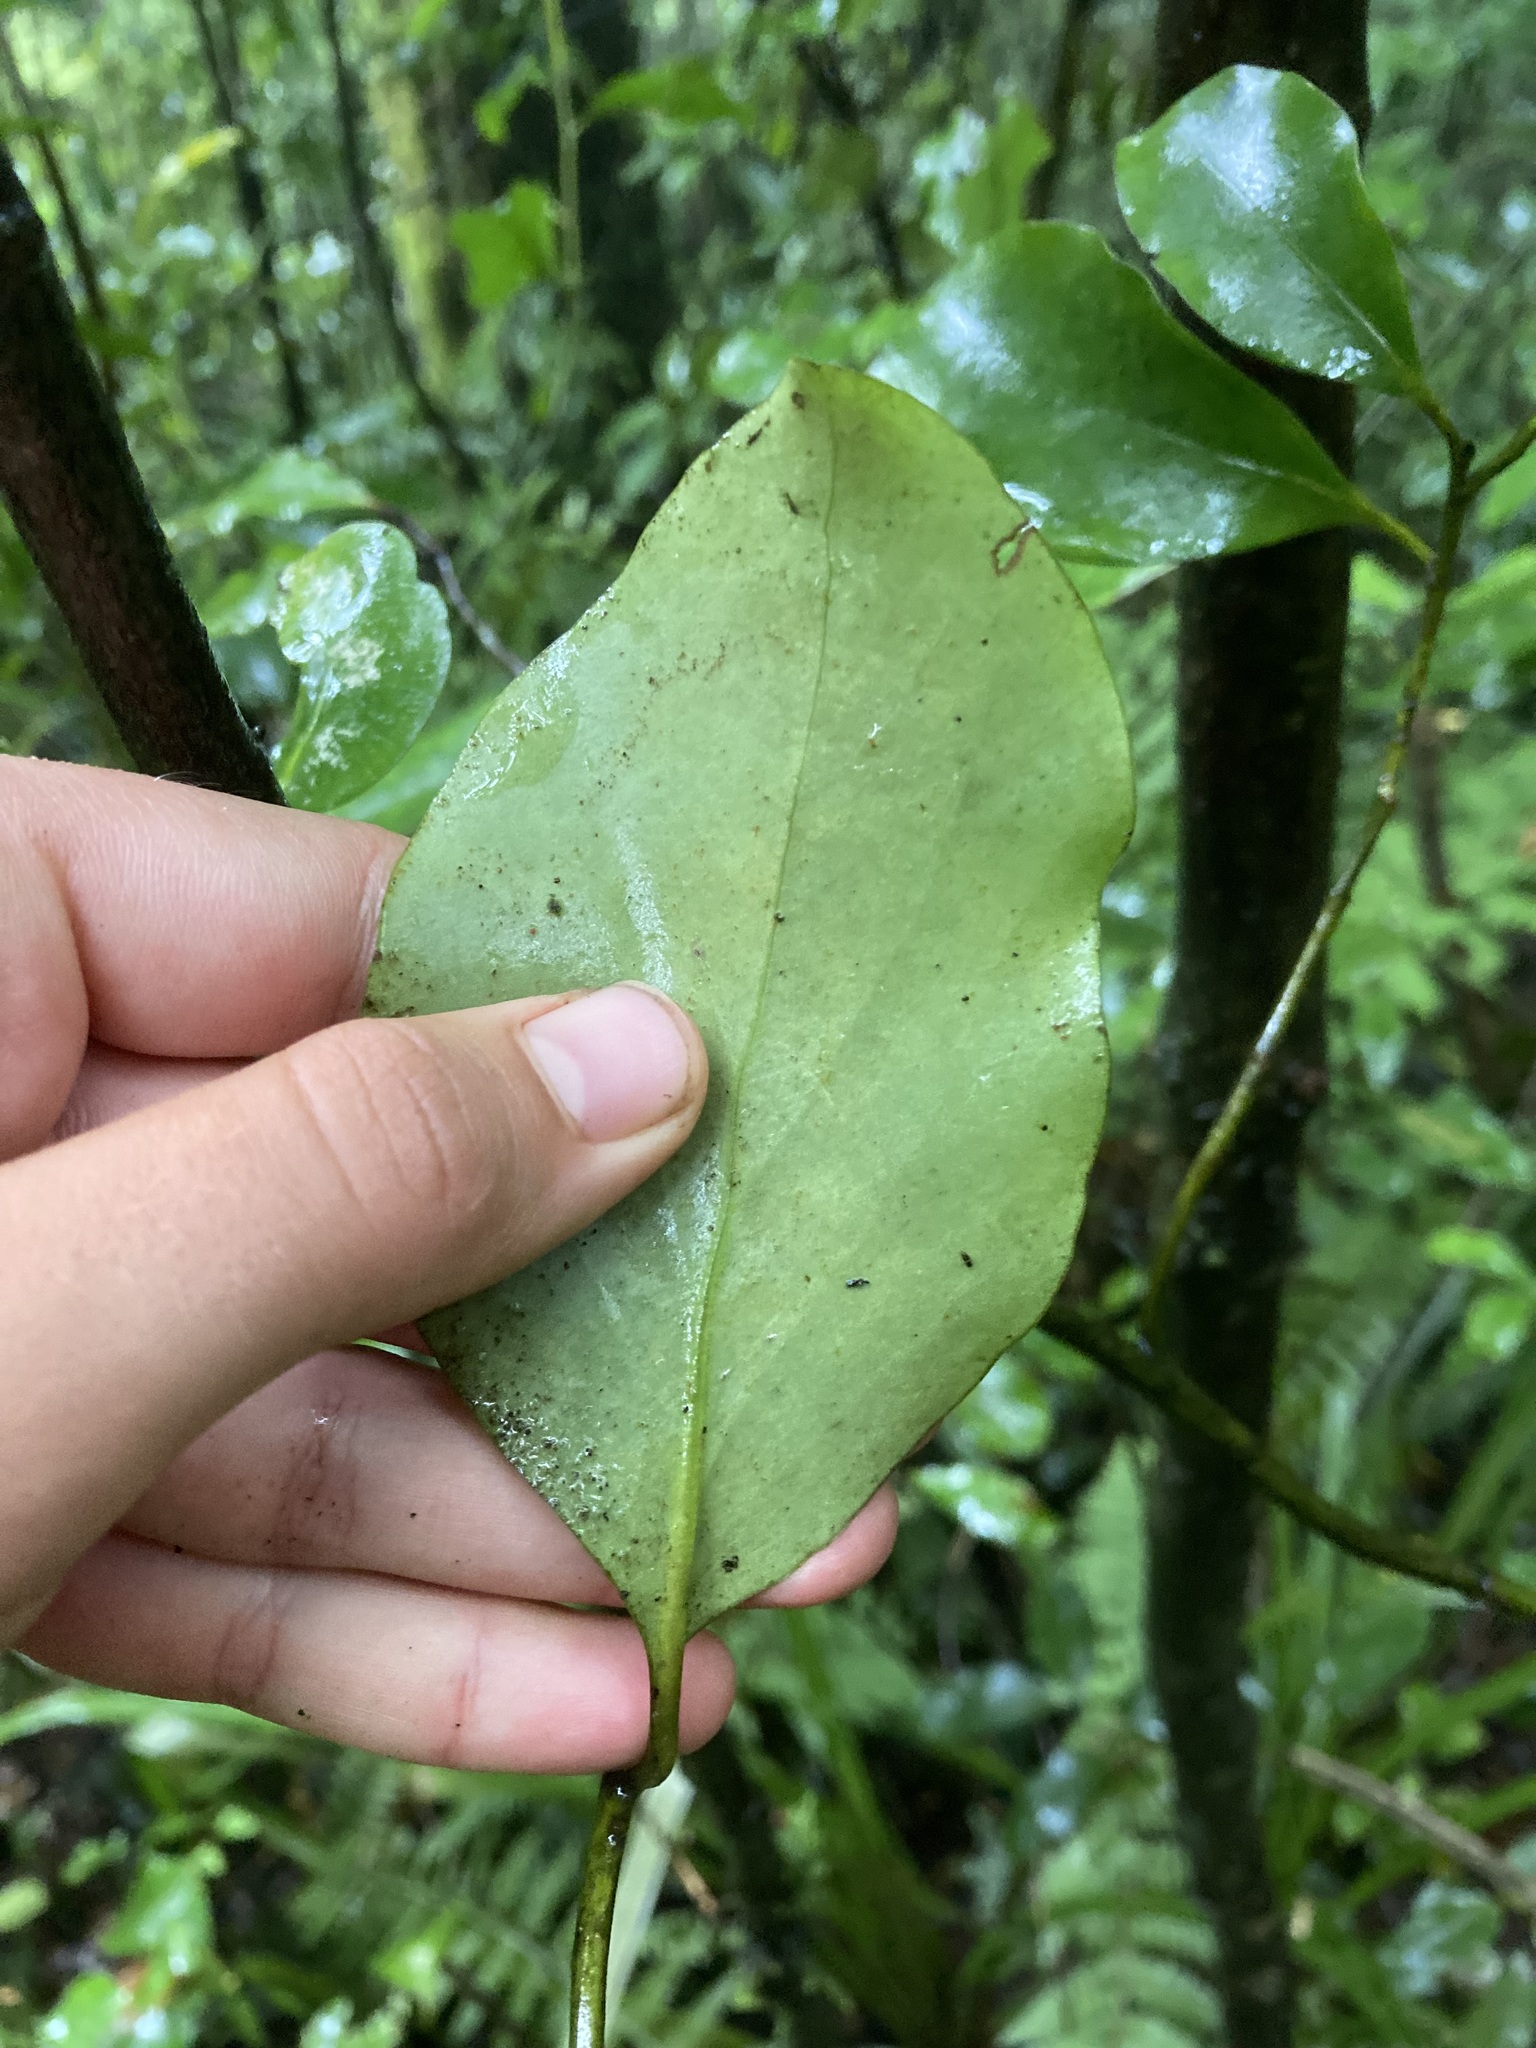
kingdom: Plantae
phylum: Tracheophyta
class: Magnoliopsida
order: Apiales
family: Griseliniaceae
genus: Griselinia
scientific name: Griselinia littoralis
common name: New zealand broadleaf
